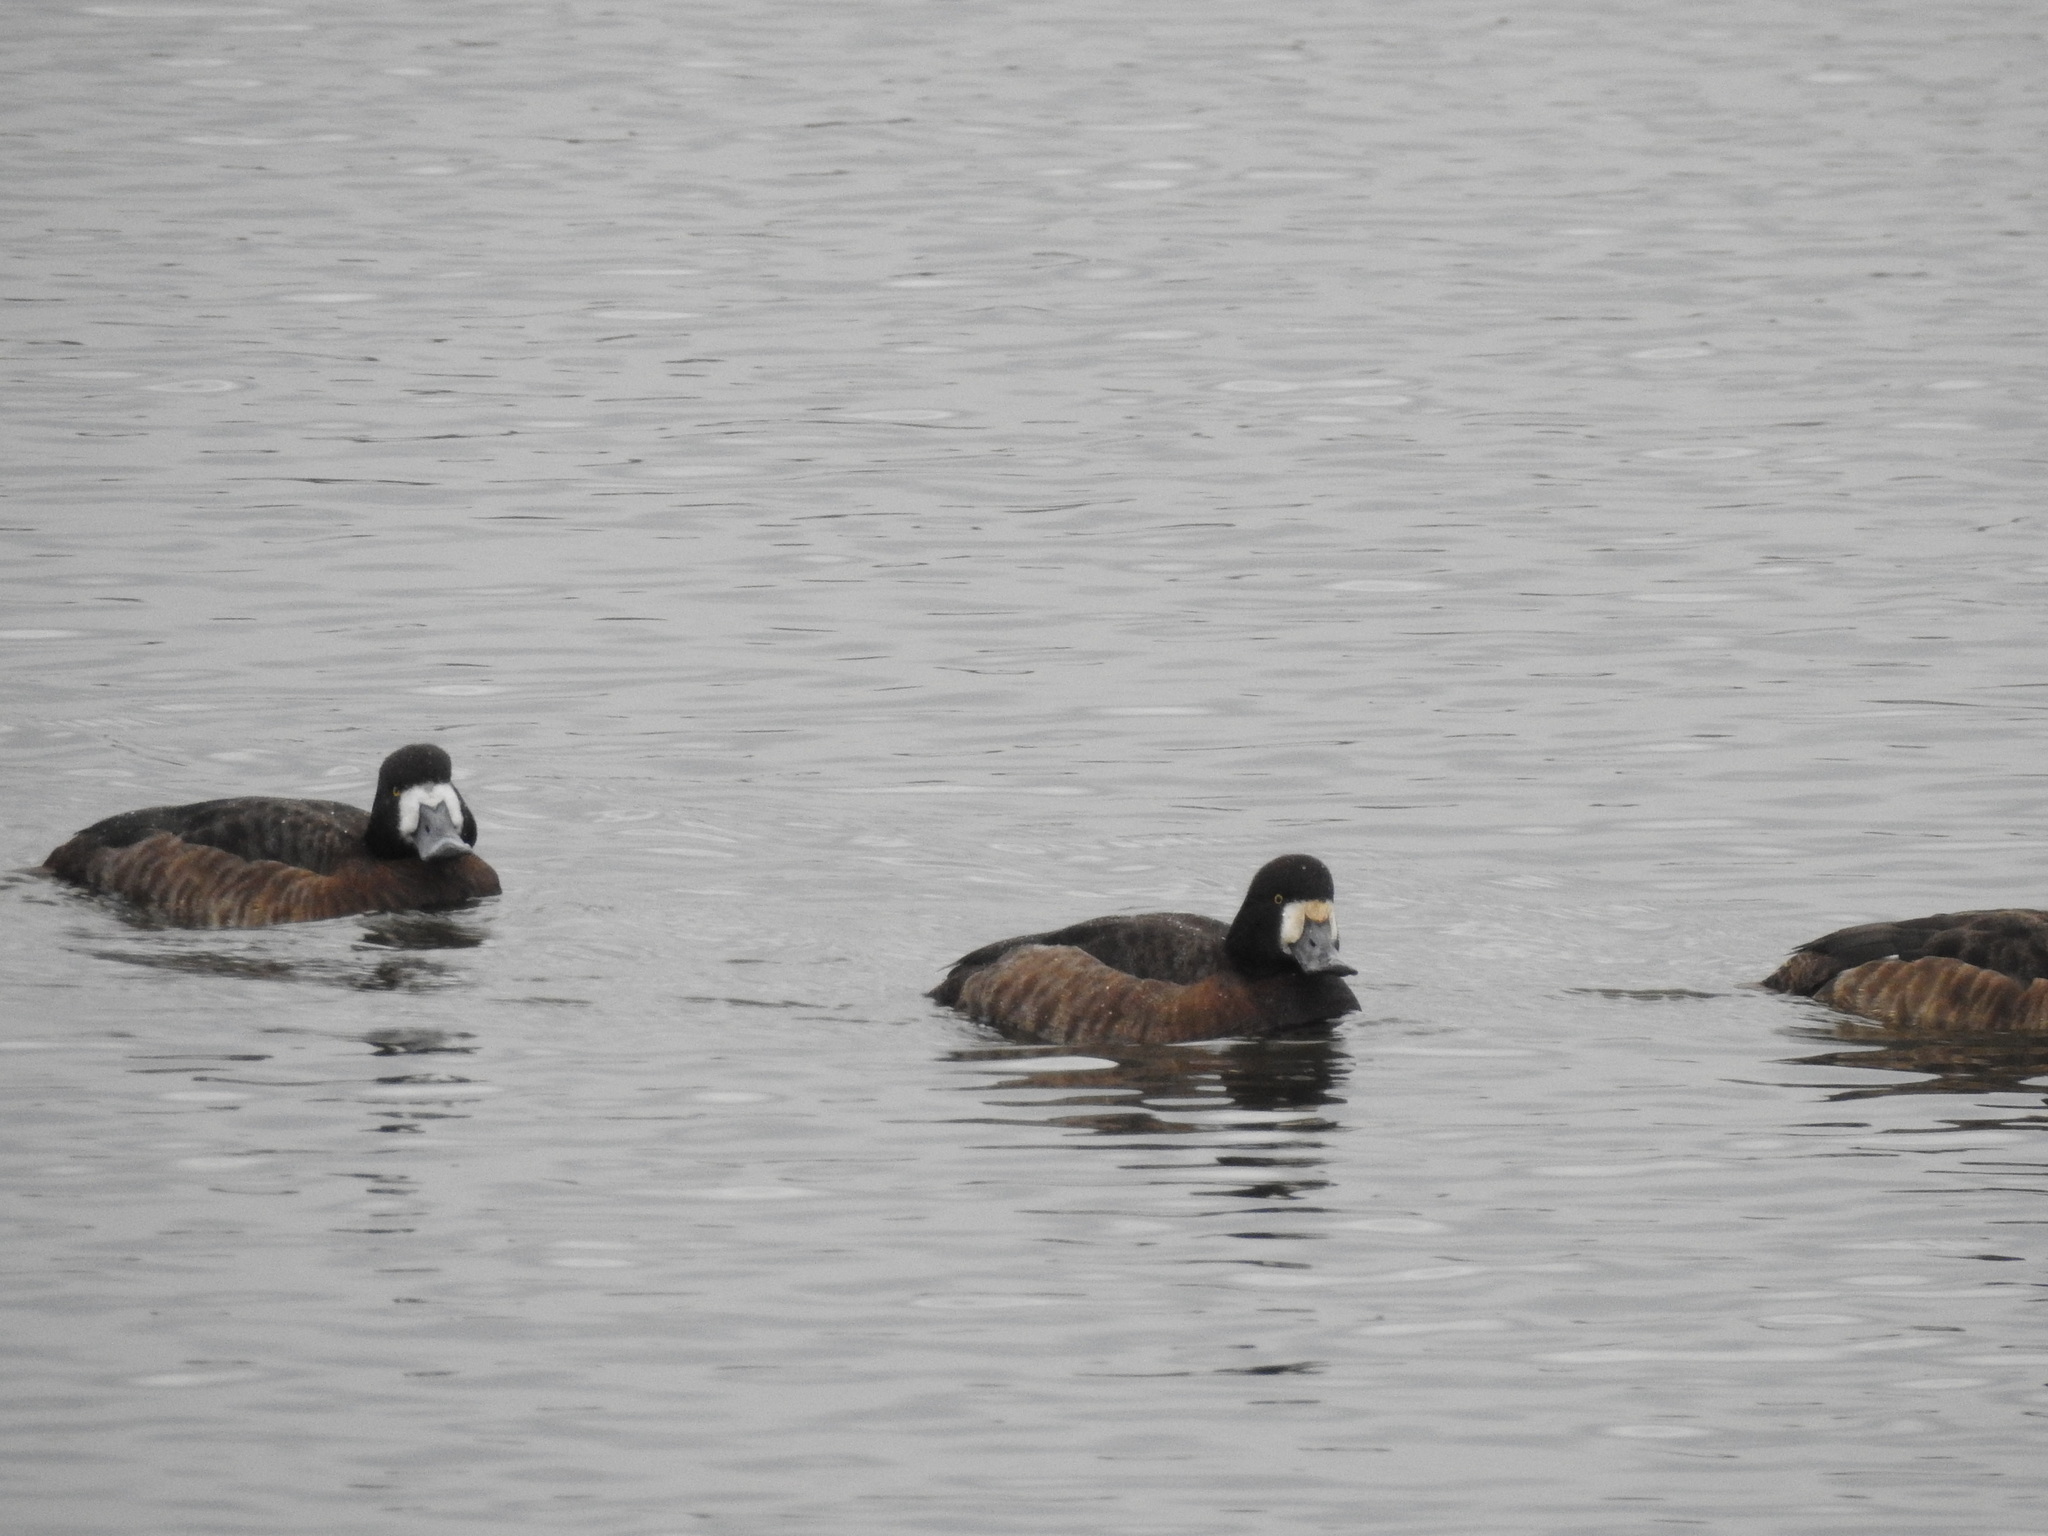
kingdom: Animalia
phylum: Chordata
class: Aves
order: Anseriformes
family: Anatidae
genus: Aythya
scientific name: Aythya marila
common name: Greater scaup
